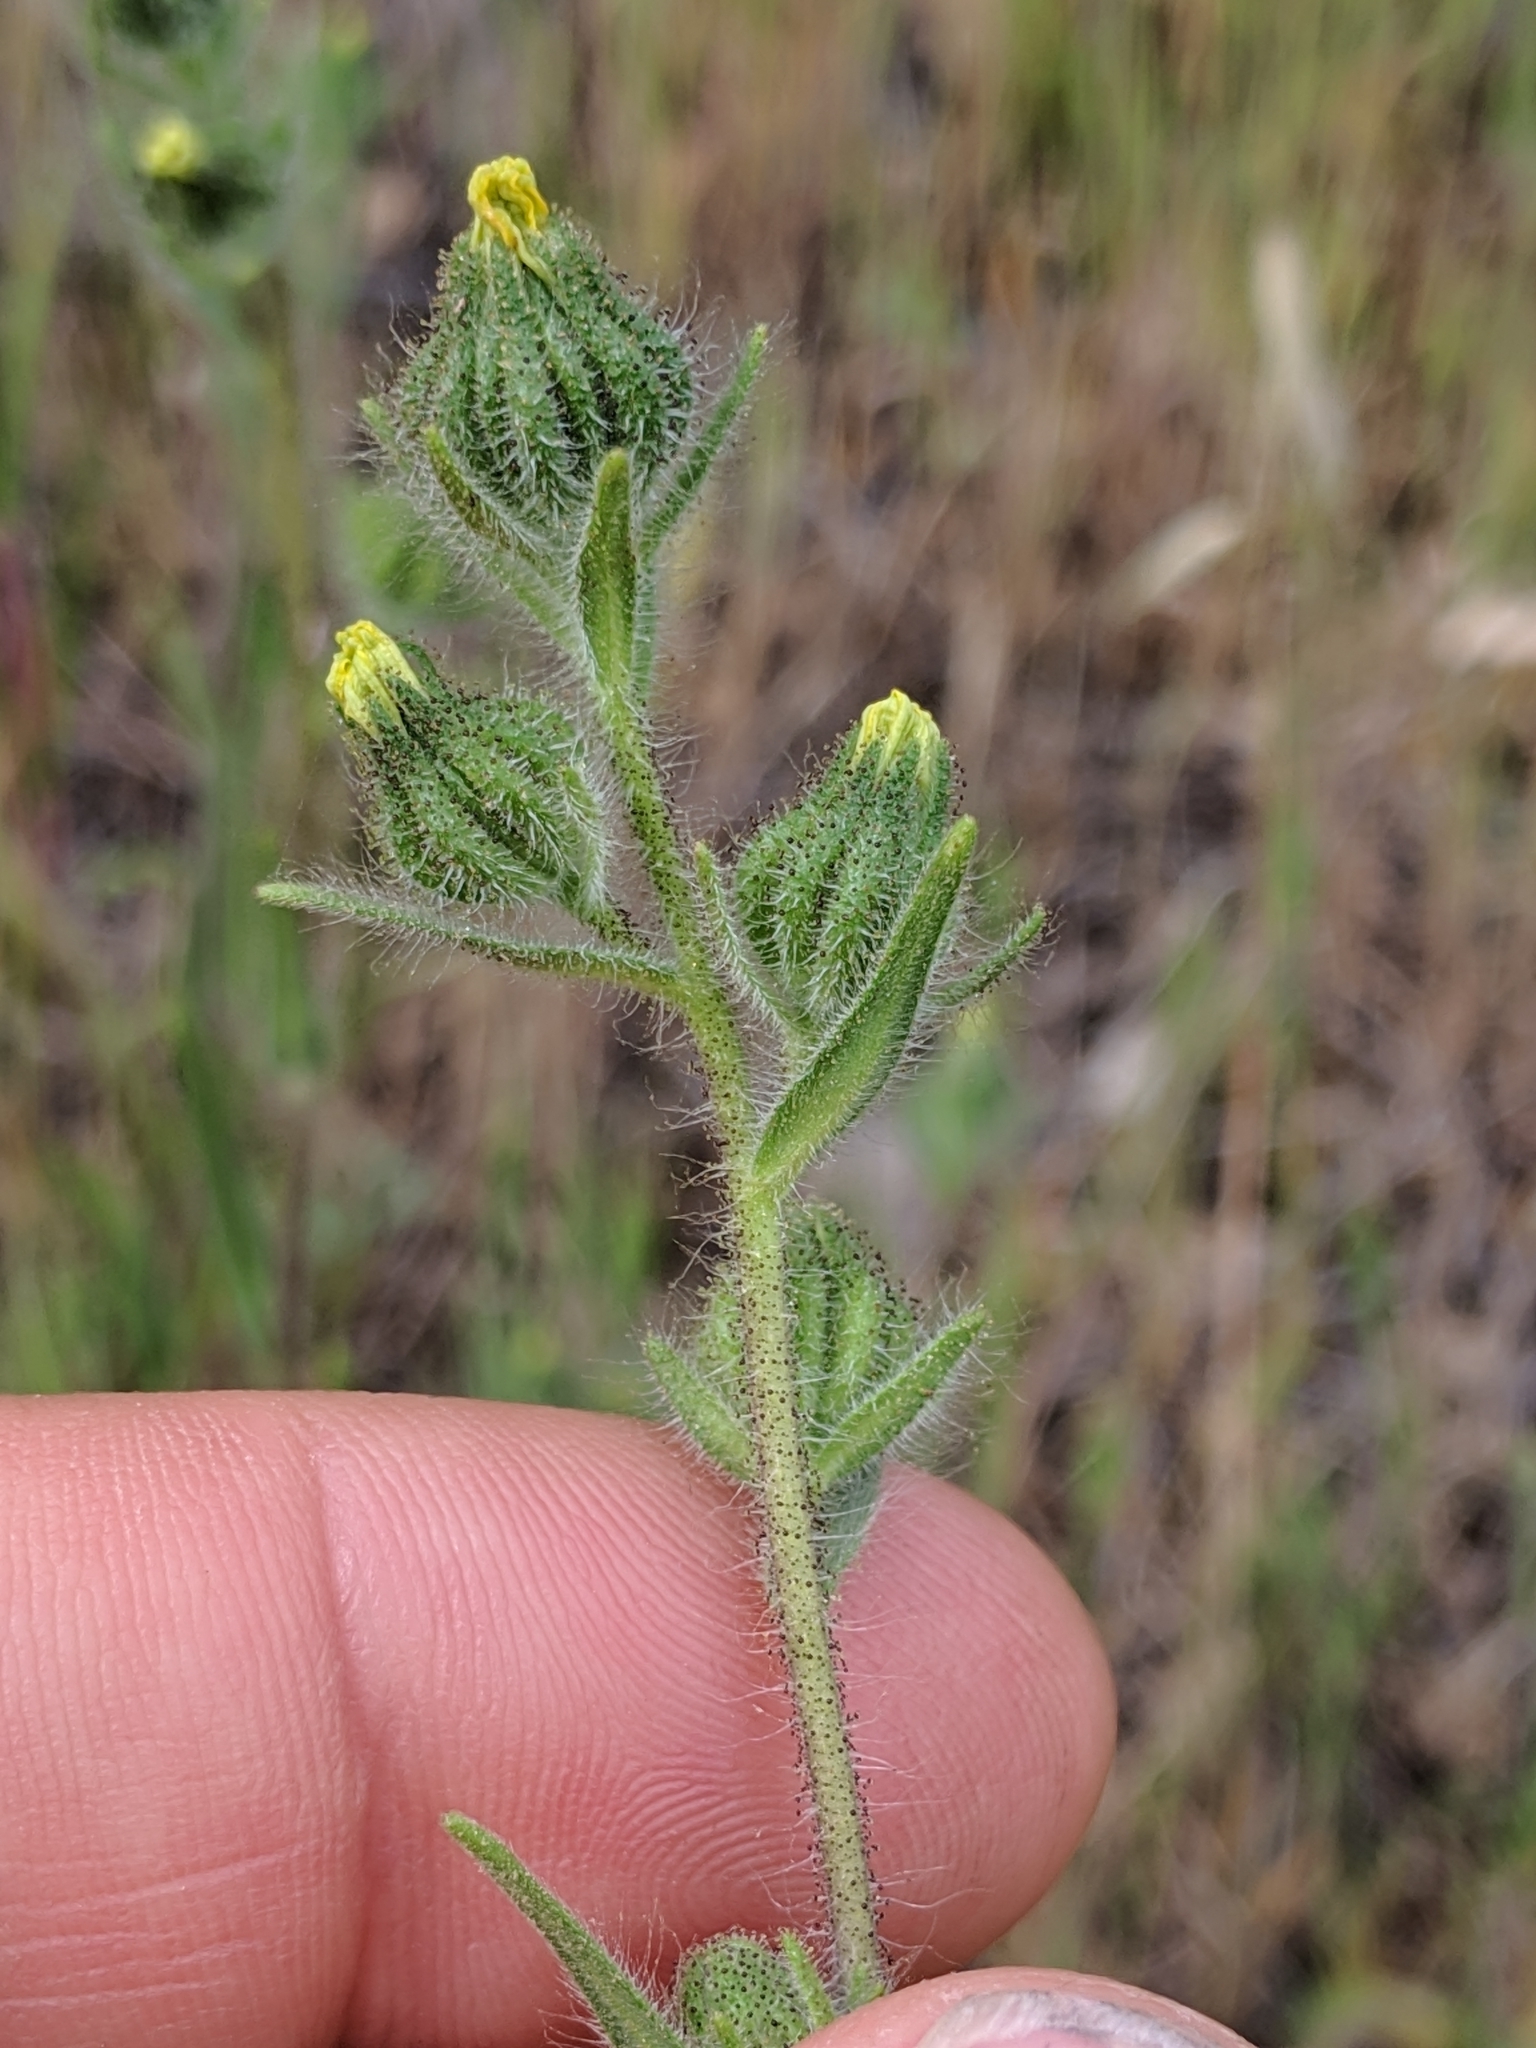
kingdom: Plantae
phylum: Tracheophyta
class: Magnoliopsida
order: Asterales
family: Asteraceae
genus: Madia
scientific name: Madia gracilis
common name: Grassy tarweed
